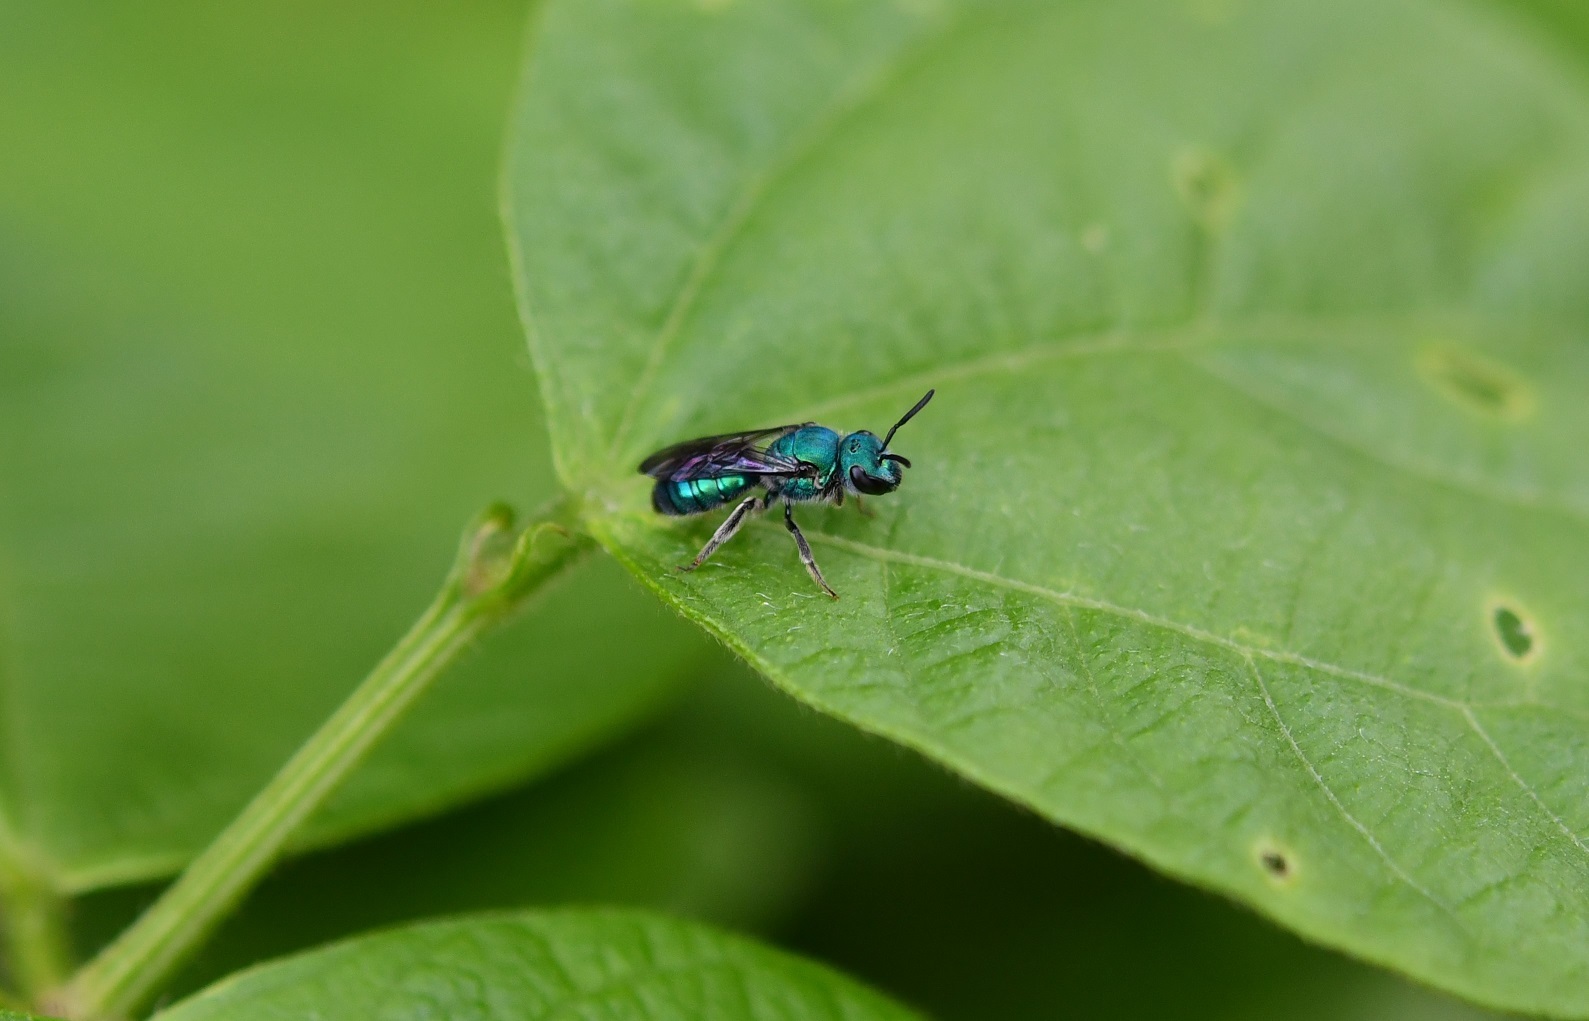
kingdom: Animalia
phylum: Arthropoda
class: Insecta
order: Hymenoptera
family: Halictidae
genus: Augochlora
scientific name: Augochlora azteca
